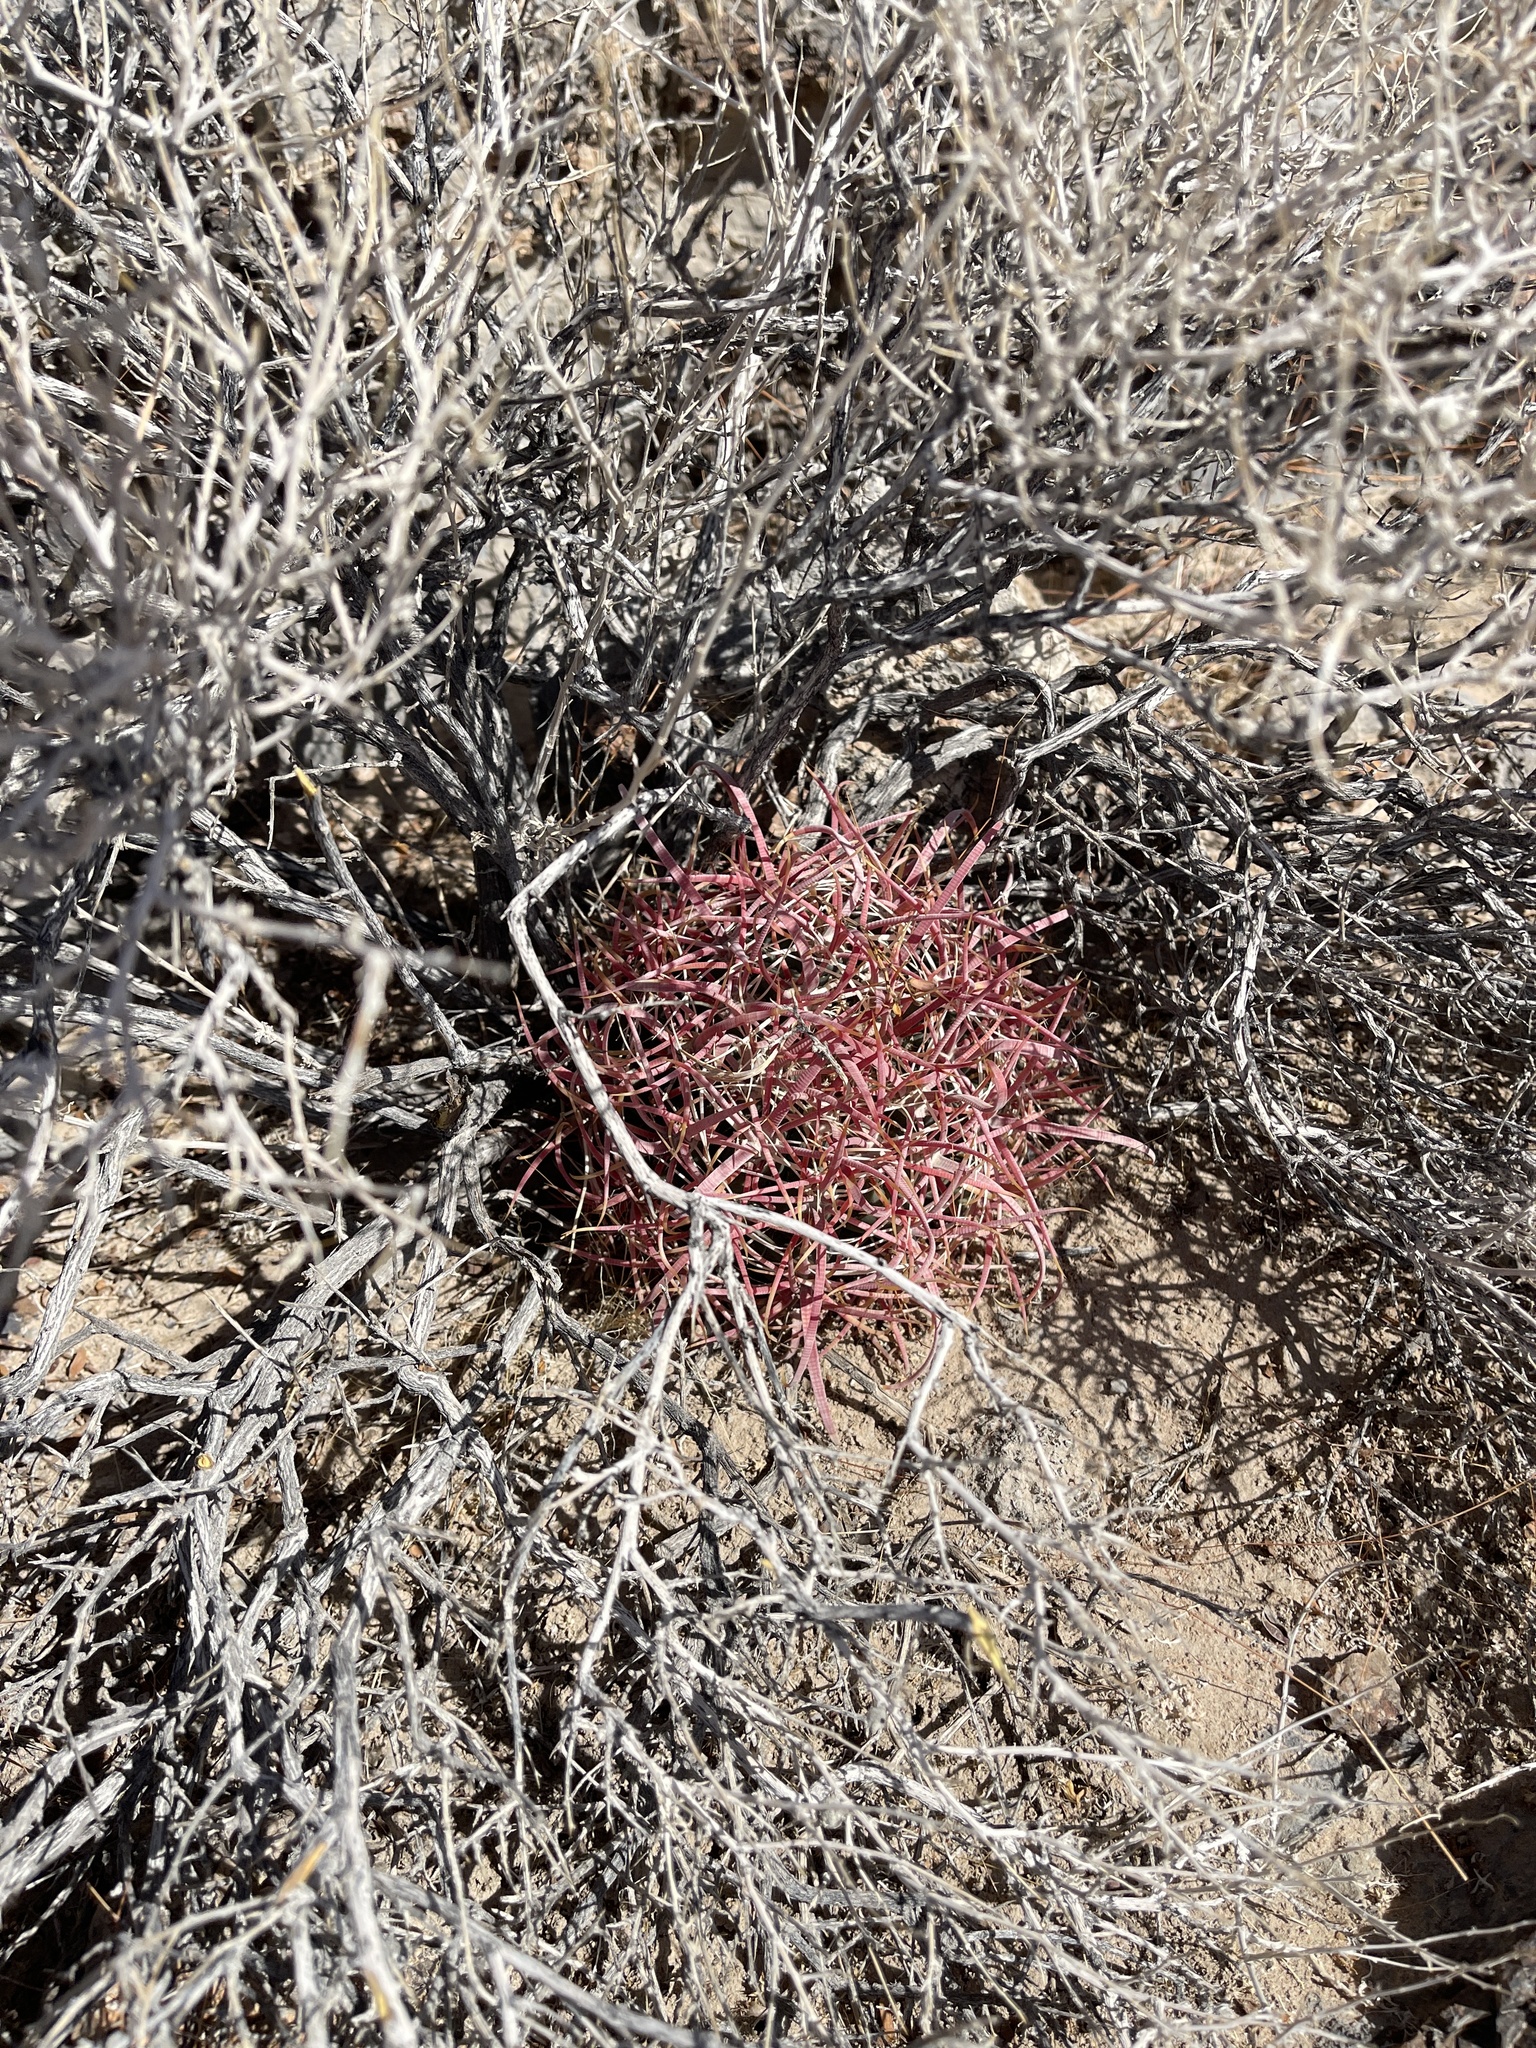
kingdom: Plantae
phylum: Tracheophyta
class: Magnoliopsida
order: Caryophyllales
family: Cactaceae
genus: Ferocactus
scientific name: Ferocactus cylindraceus
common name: California barrel cactus
